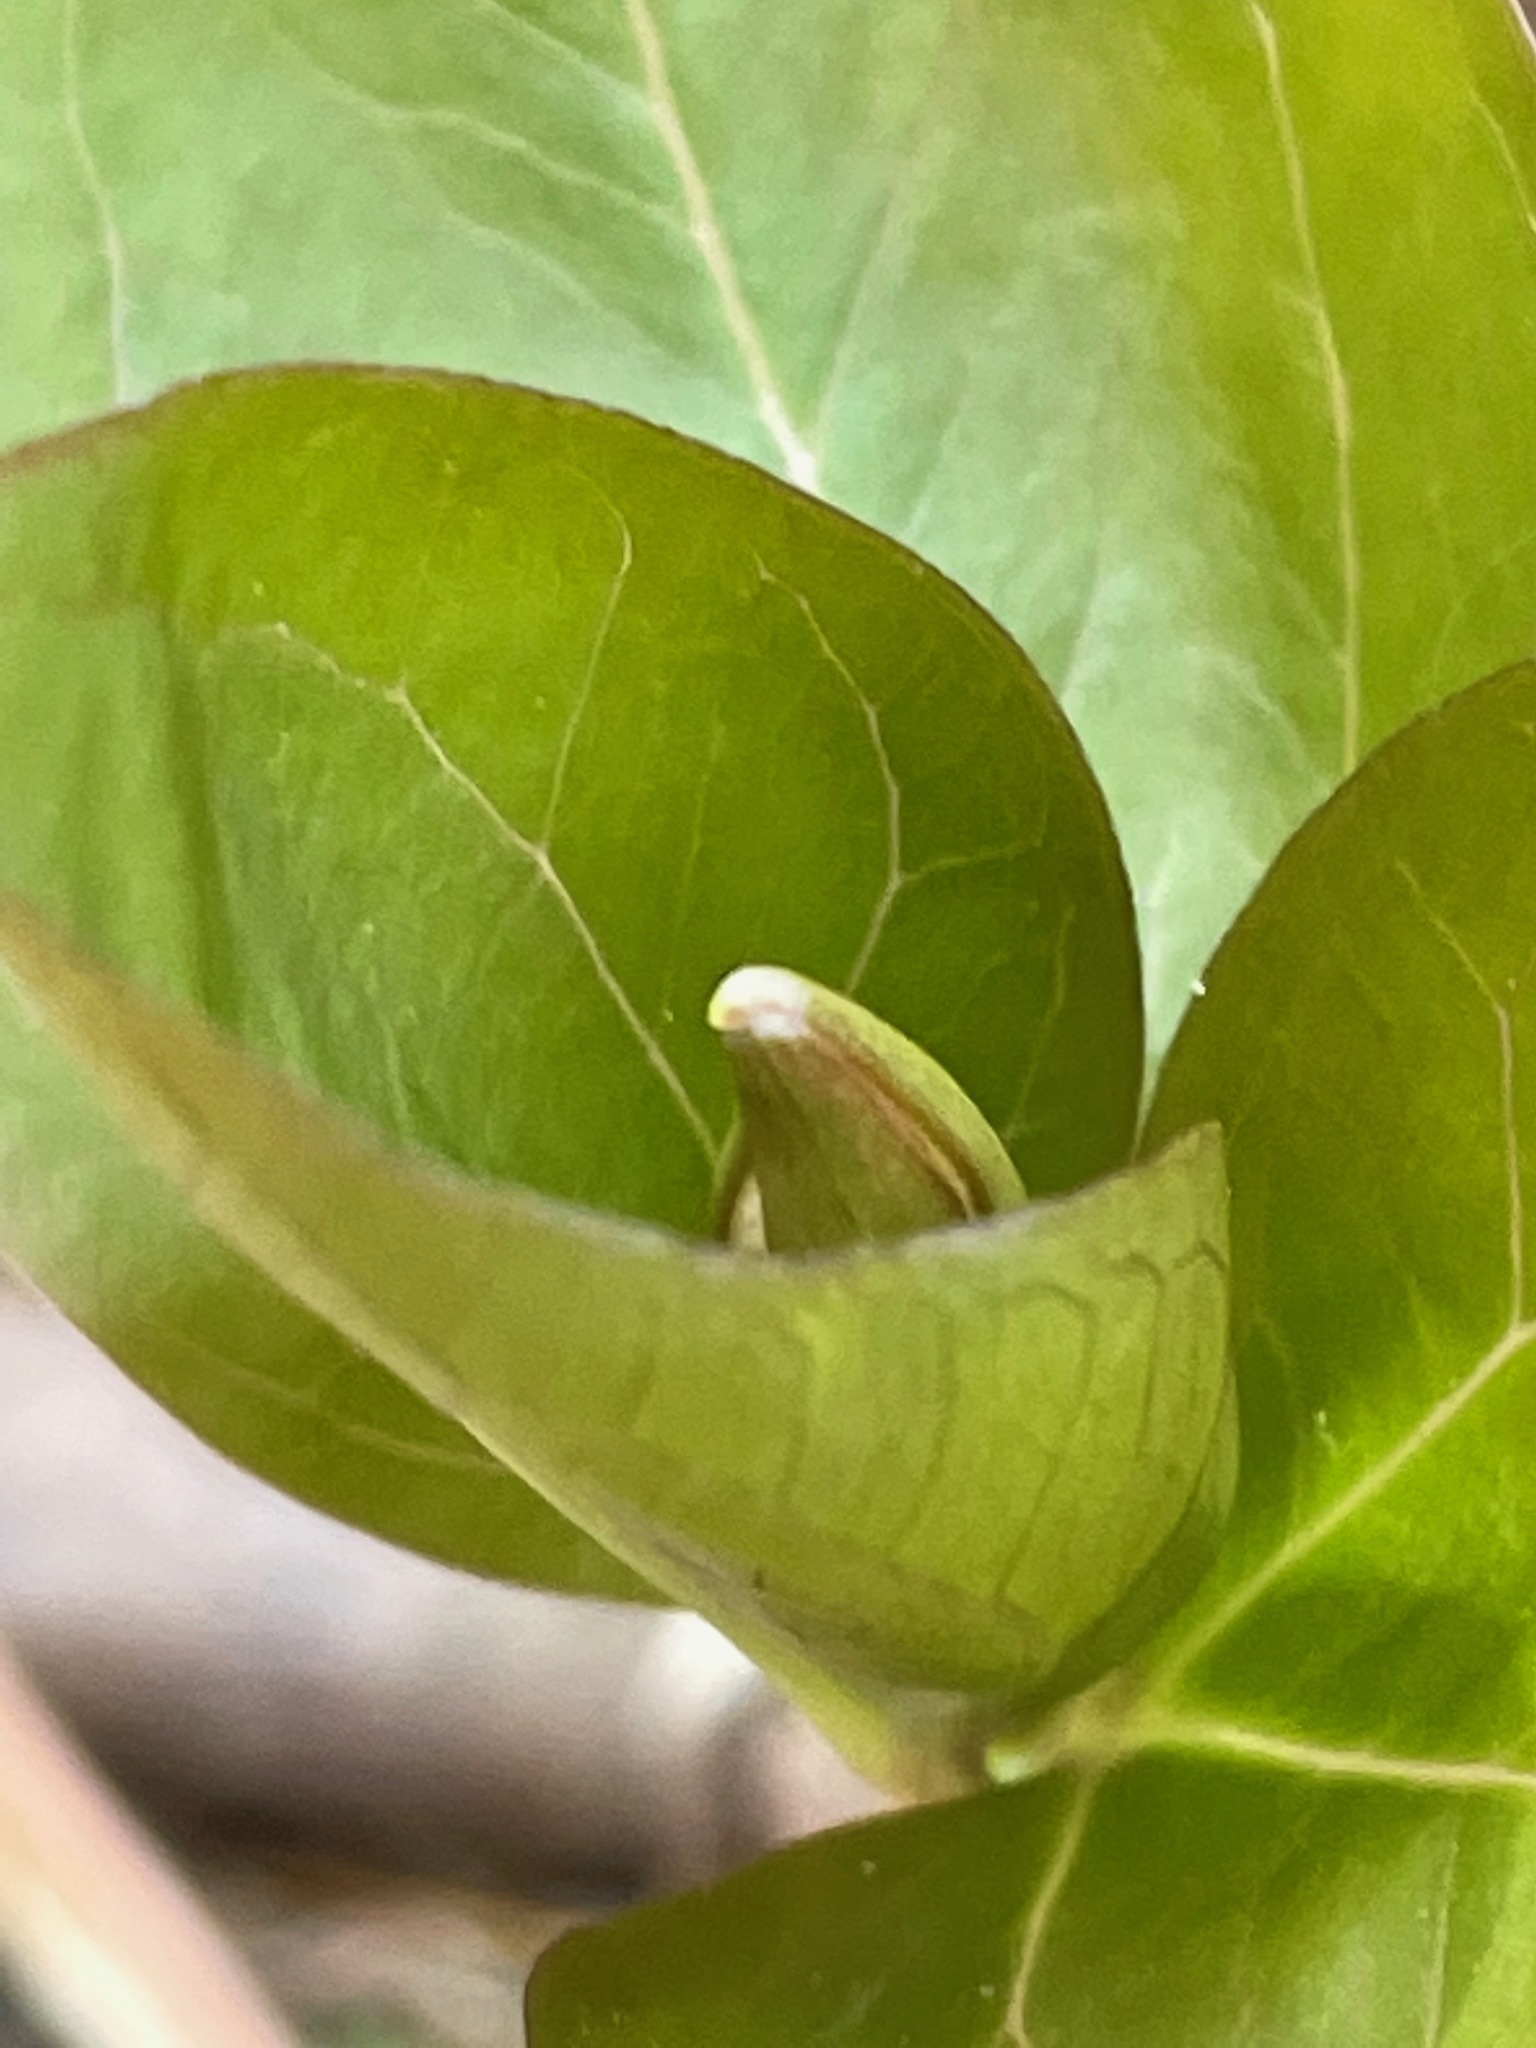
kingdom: Plantae
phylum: Tracheophyta
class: Liliopsida
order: Liliales
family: Melanthiaceae
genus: Trillium
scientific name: Trillium undulatum
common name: Paint trillium
